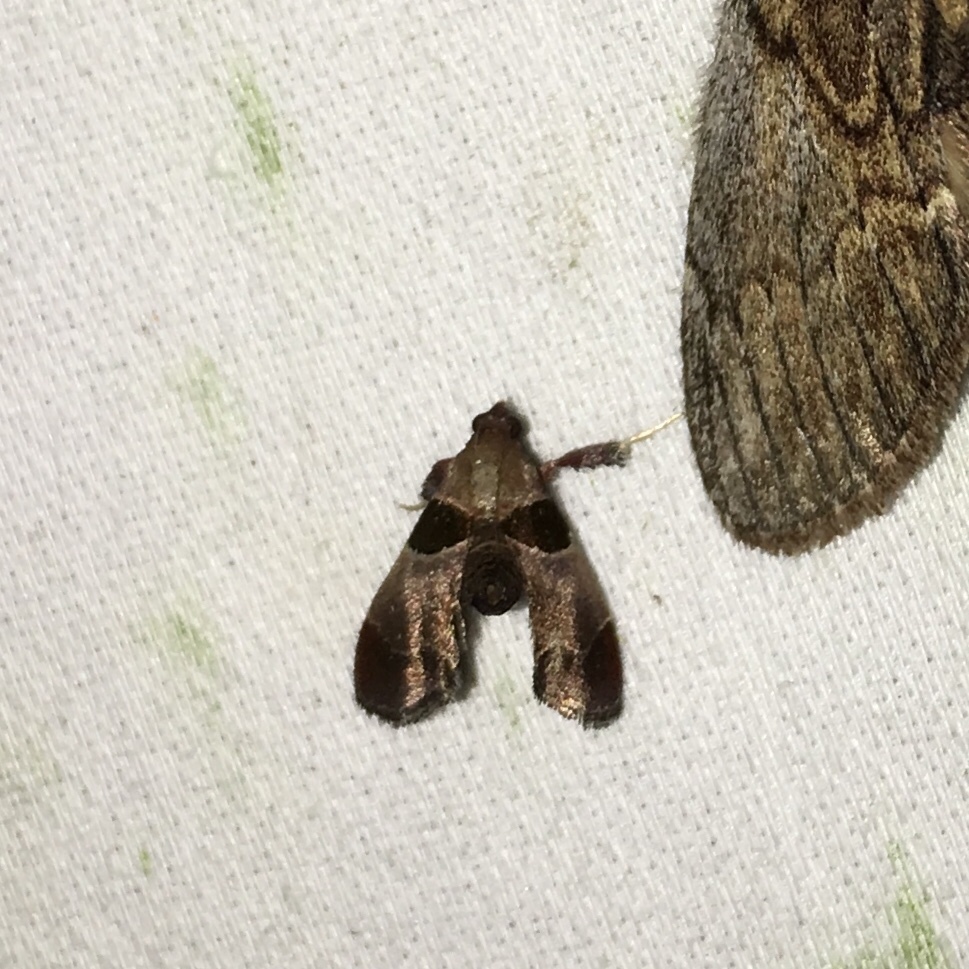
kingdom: Animalia
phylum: Arthropoda
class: Insecta
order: Lepidoptera
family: Pyralidae
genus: Tosale
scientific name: Tosale oviplagalis
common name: Dimorphic tosale moth
